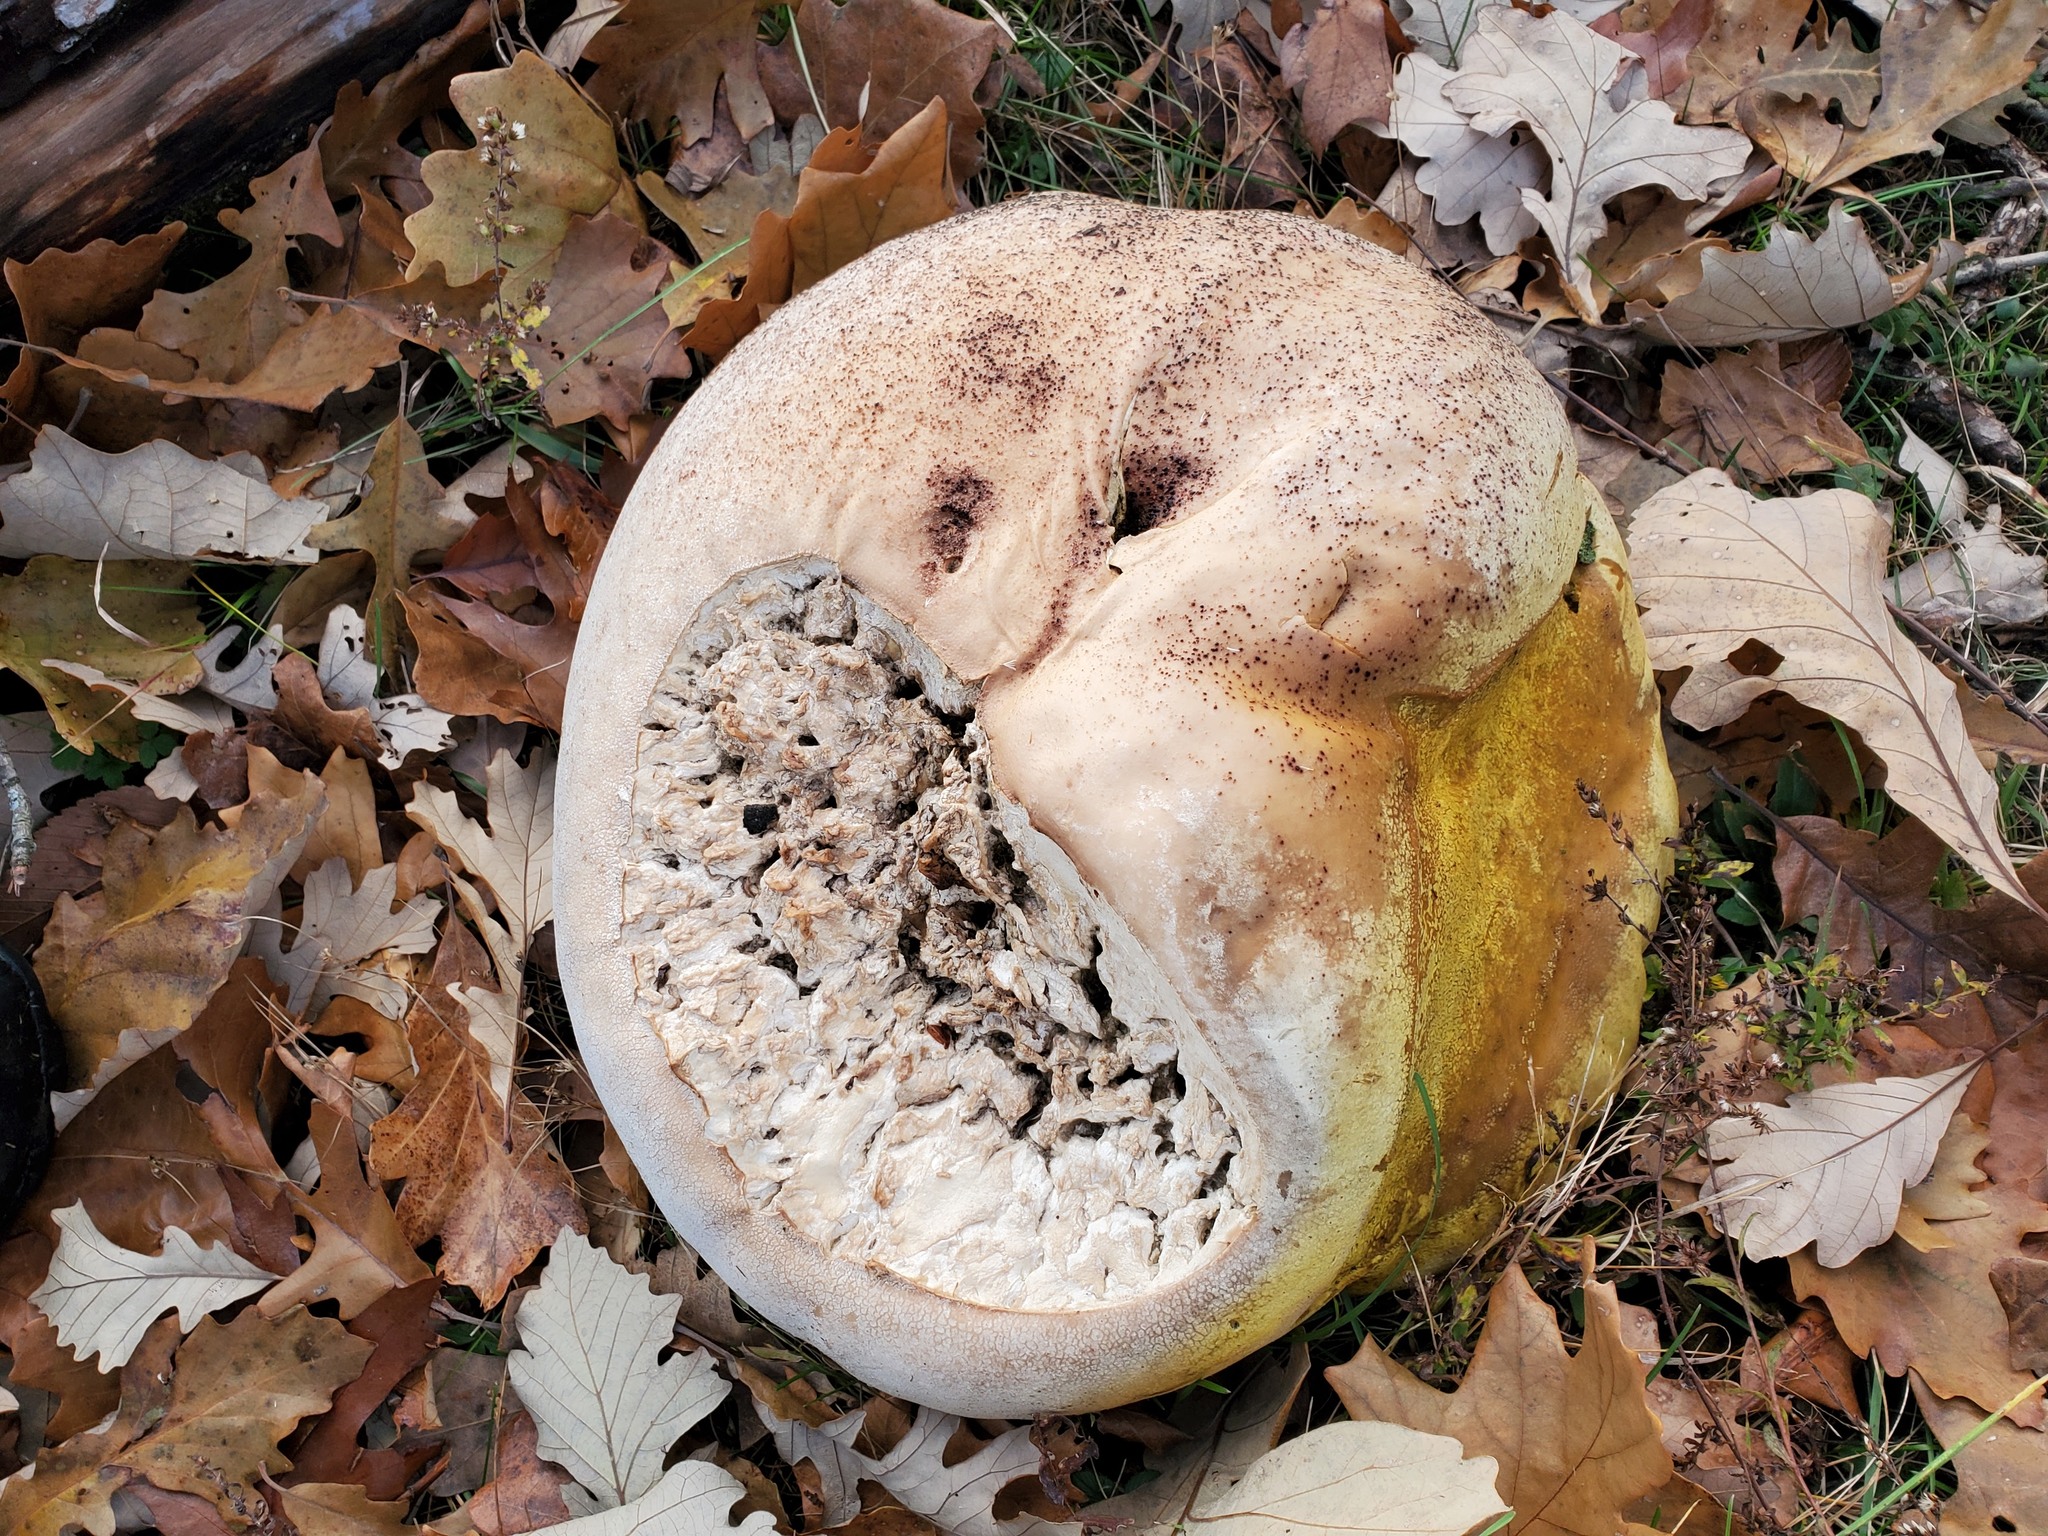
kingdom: Fungi
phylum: Basidiomycota
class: Agaricomycetes
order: Agaricales
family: Lycoperdaceae
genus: Calvatia
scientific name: Calvatia gigantea
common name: Giant puffball
